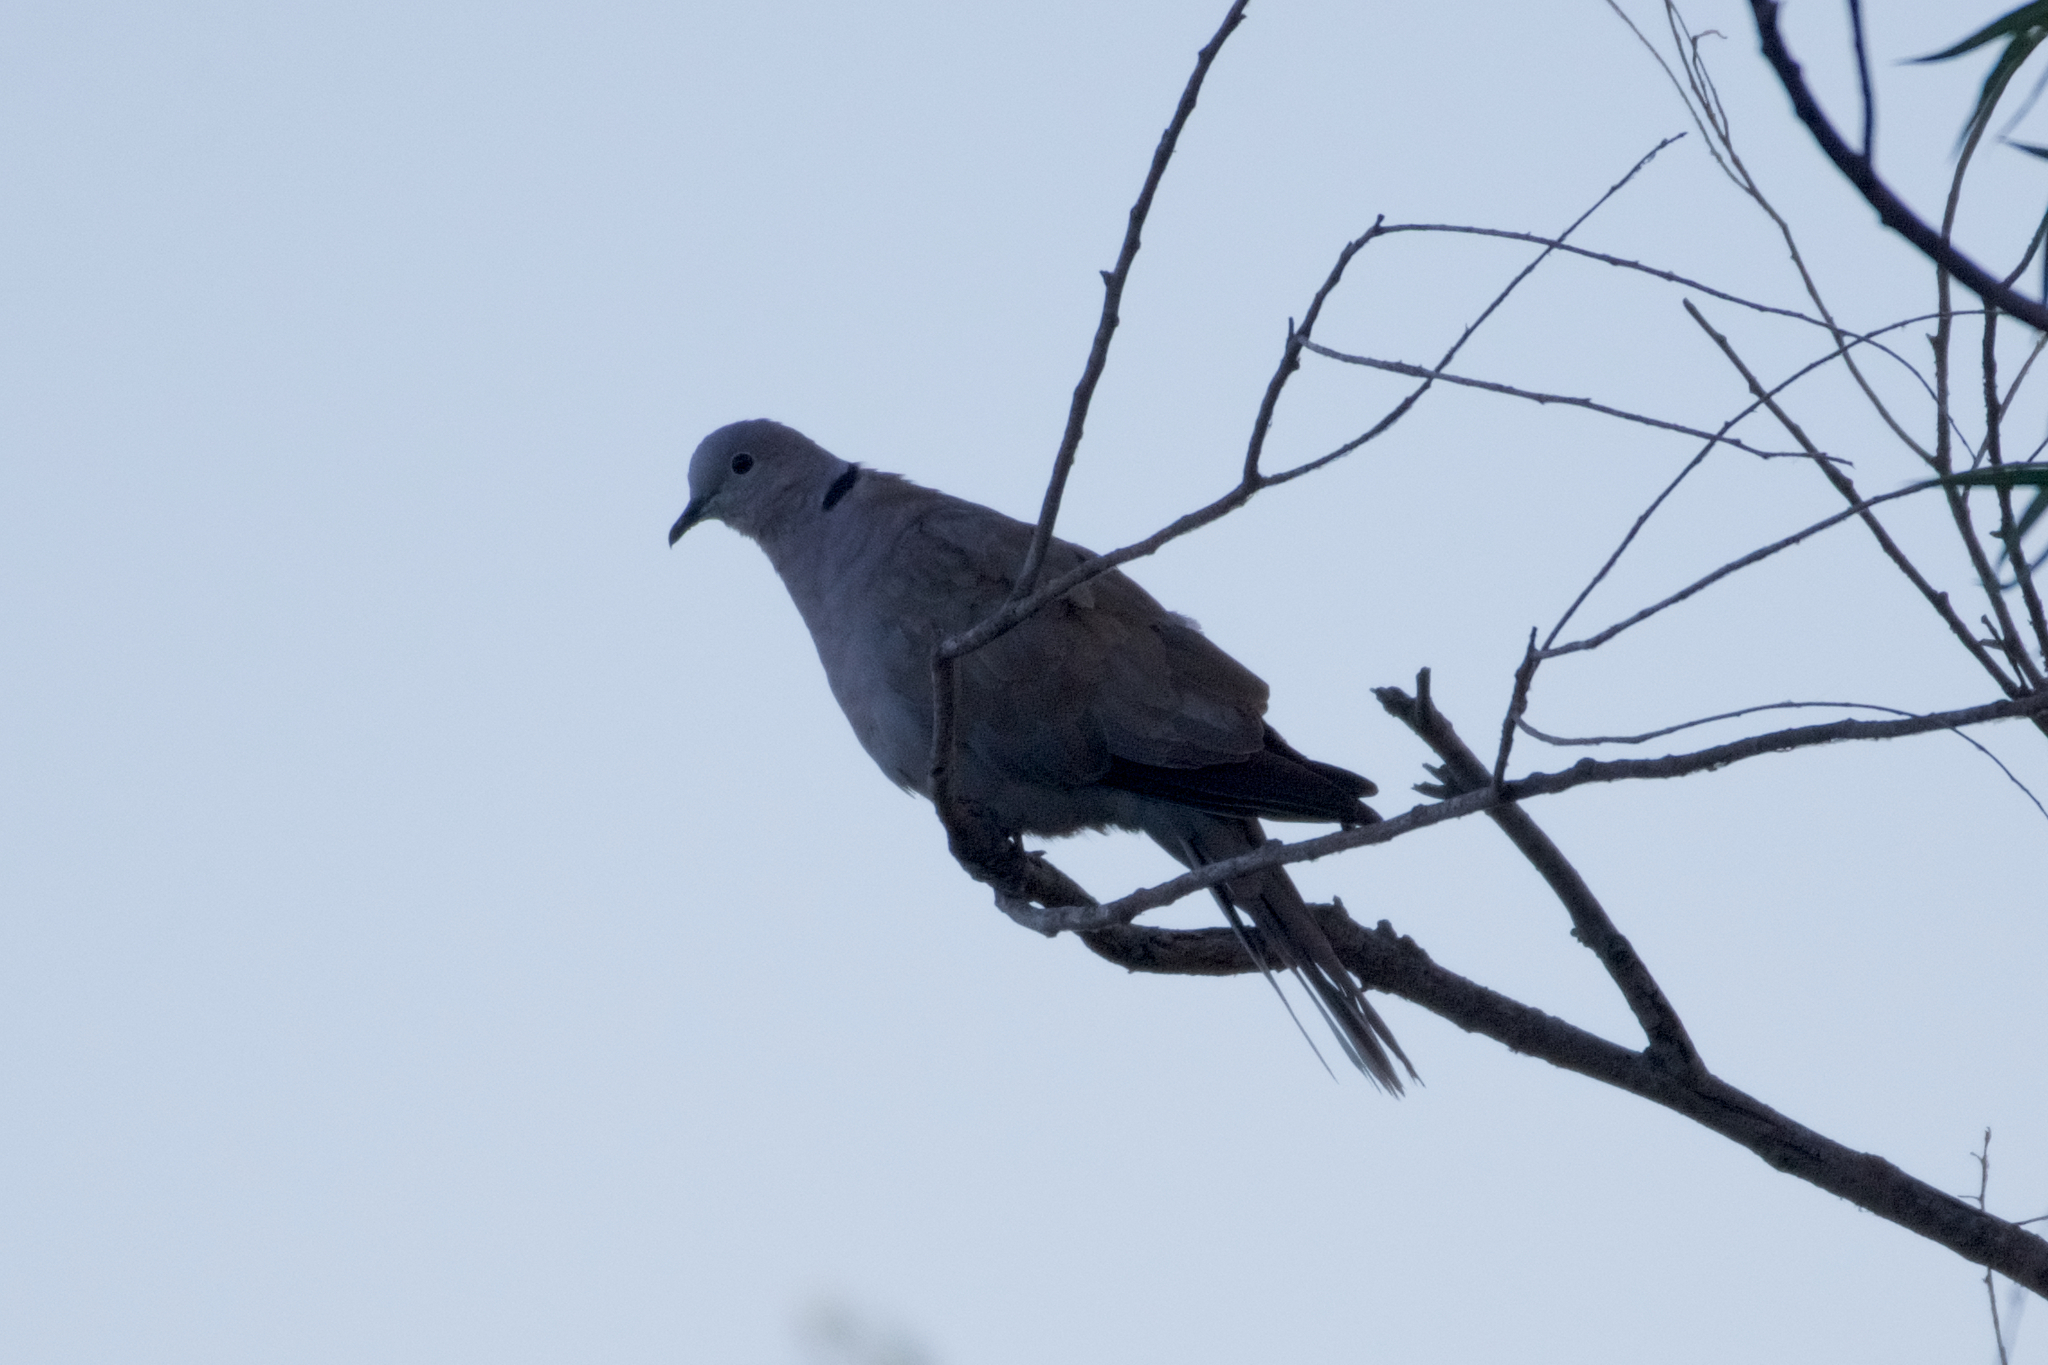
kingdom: Animalia
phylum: Chordata
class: Aves
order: Columbiformes
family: Columbidae
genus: Streptopelia
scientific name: Streptopelia decaocto
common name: Eurasian collared dove
